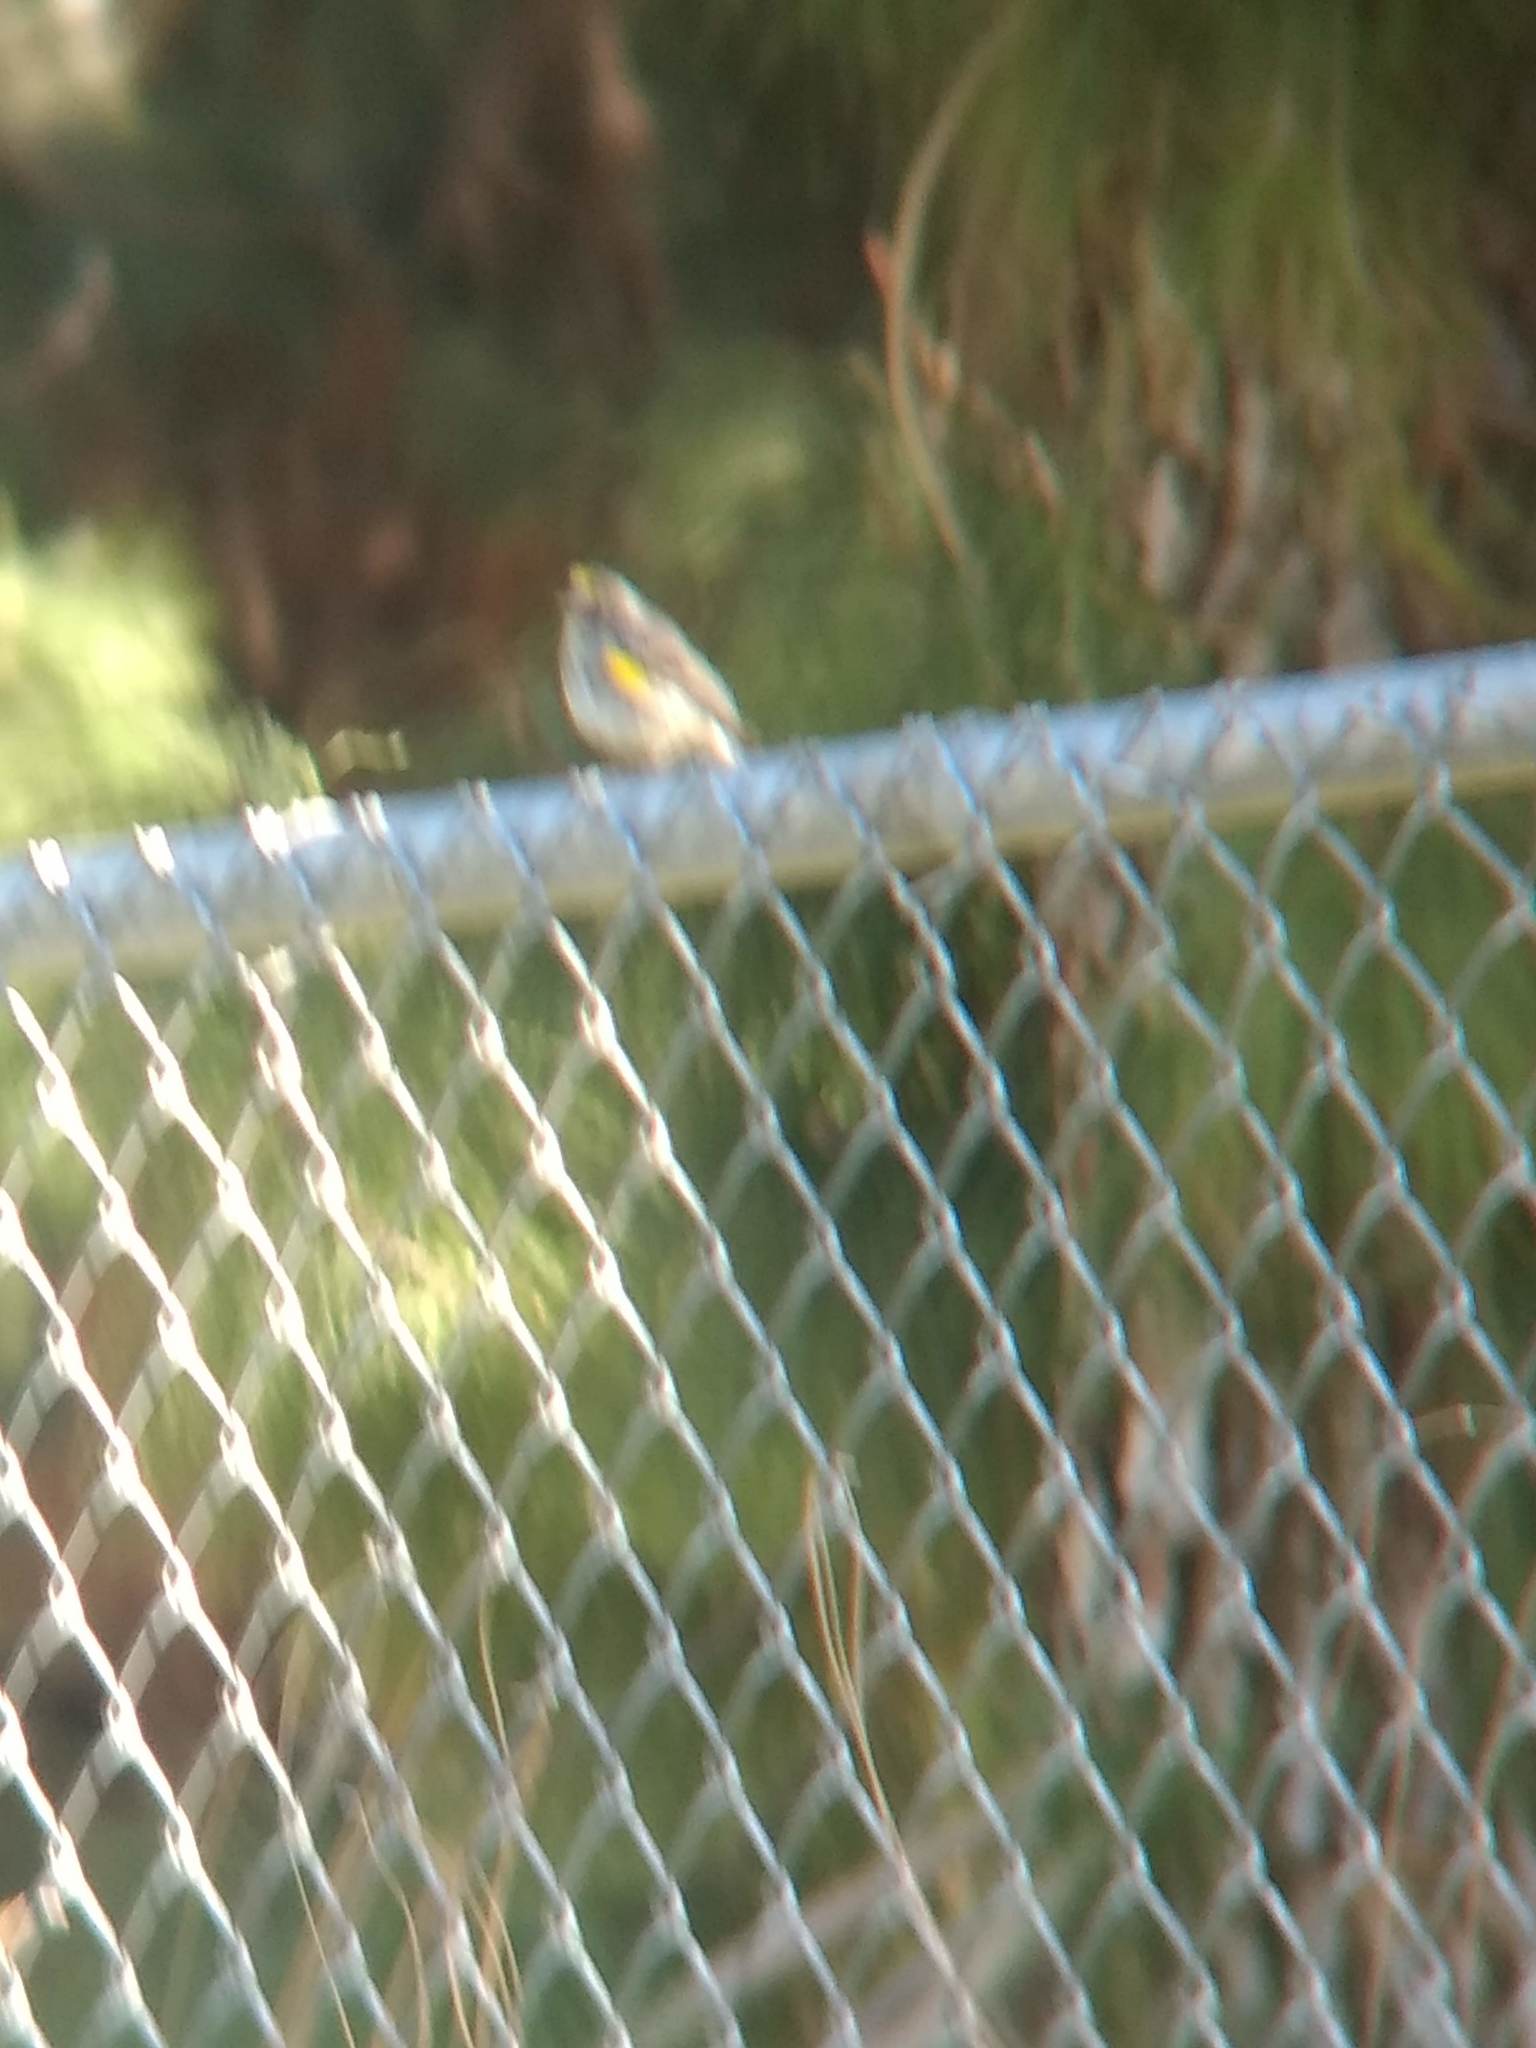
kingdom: Animalia
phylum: Chordata
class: Aves
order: Passeriformes
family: Parulidae
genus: Setophaga
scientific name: Setophaga coronata
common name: Myrtle warbler
